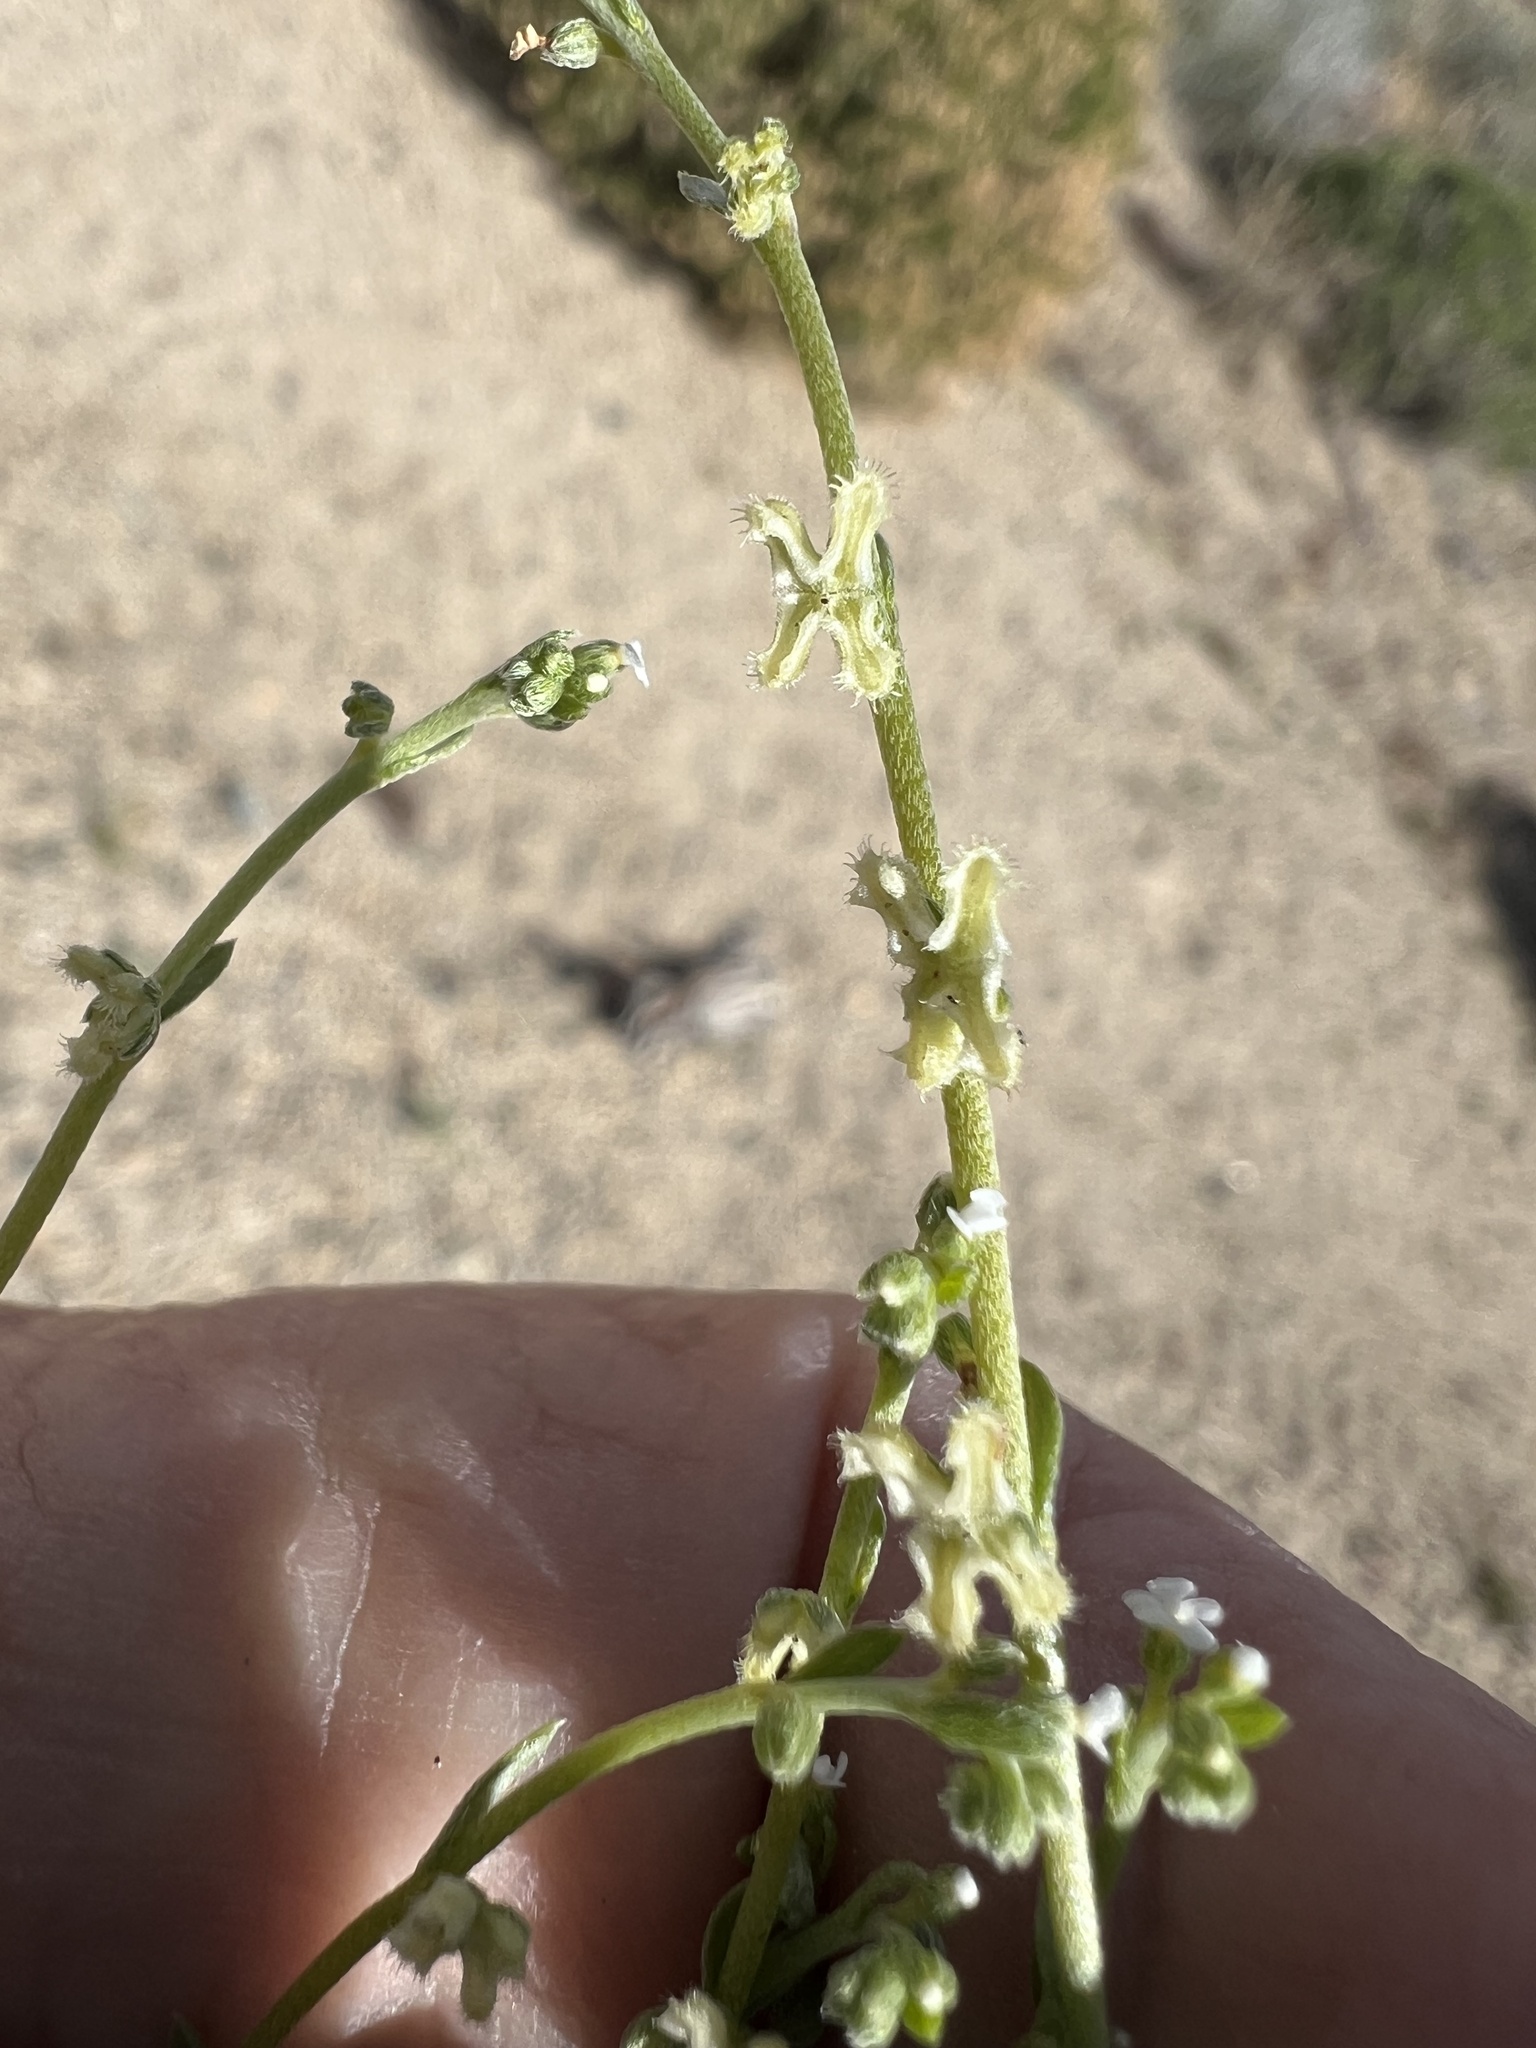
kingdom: Plantae
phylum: Tracheophyta
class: Magnoliopsida
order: Boraginales
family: Boraginaceae
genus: Pectocarya
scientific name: Pectocarya penicillata
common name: Short-leaved combseed
